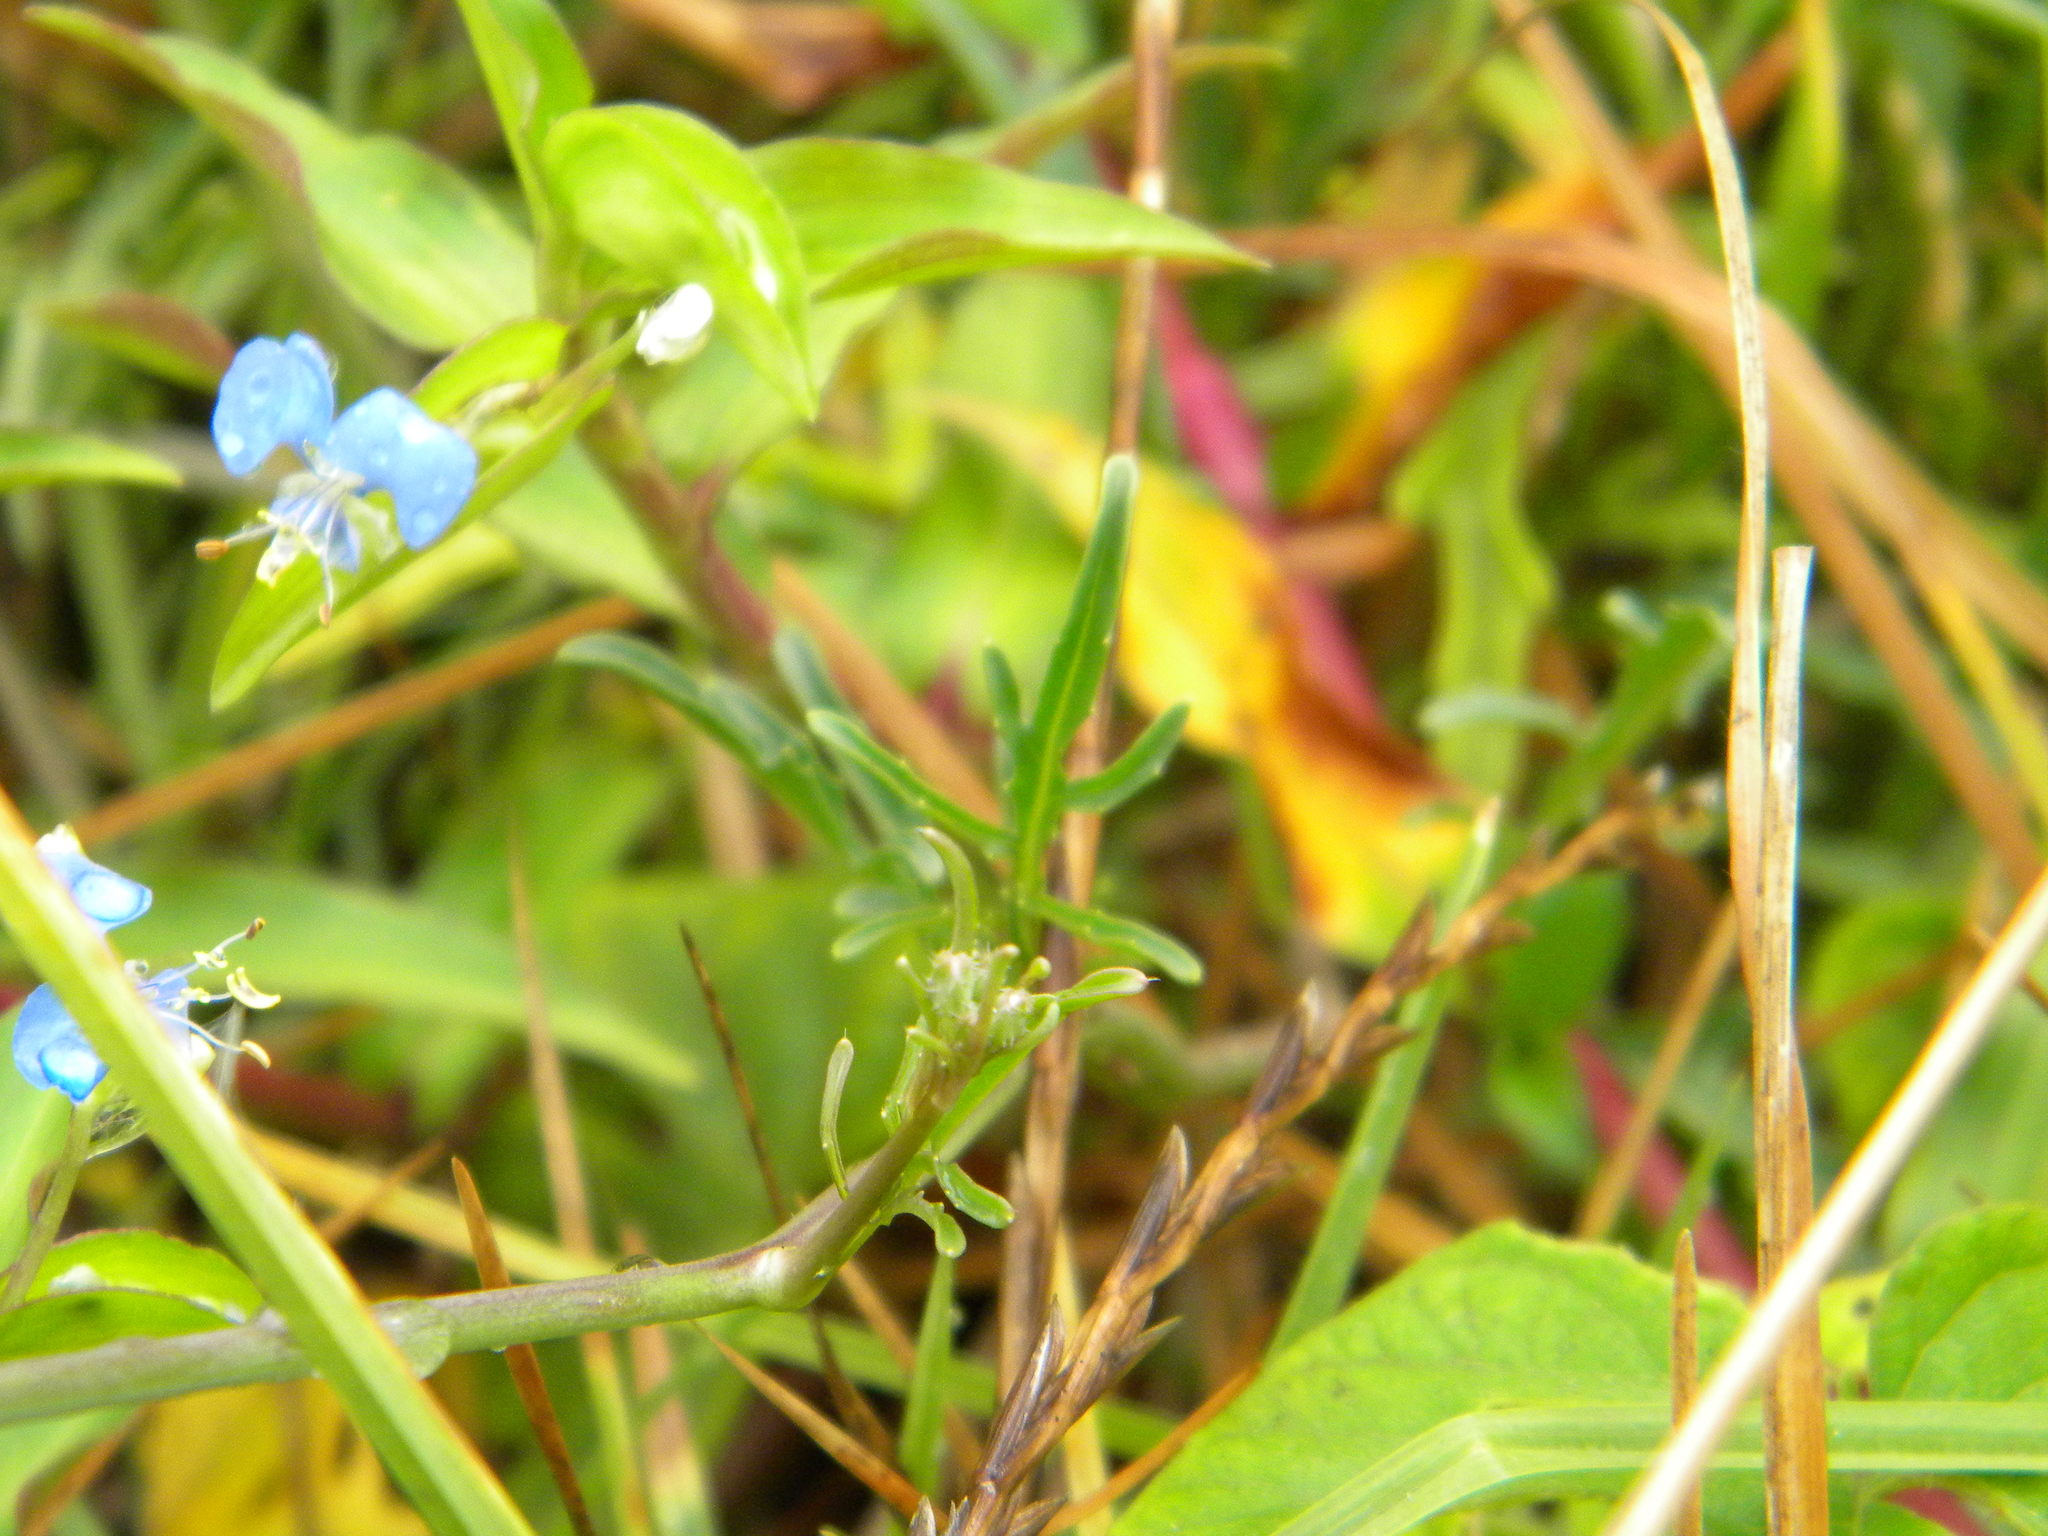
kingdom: Plantae
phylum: Tracheophyta
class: Magnoliopsida
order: Brassicales
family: Brassicaceae
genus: Diplotaxis
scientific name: Diplotaxis tenuifolia
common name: Perennial wall-rocket
